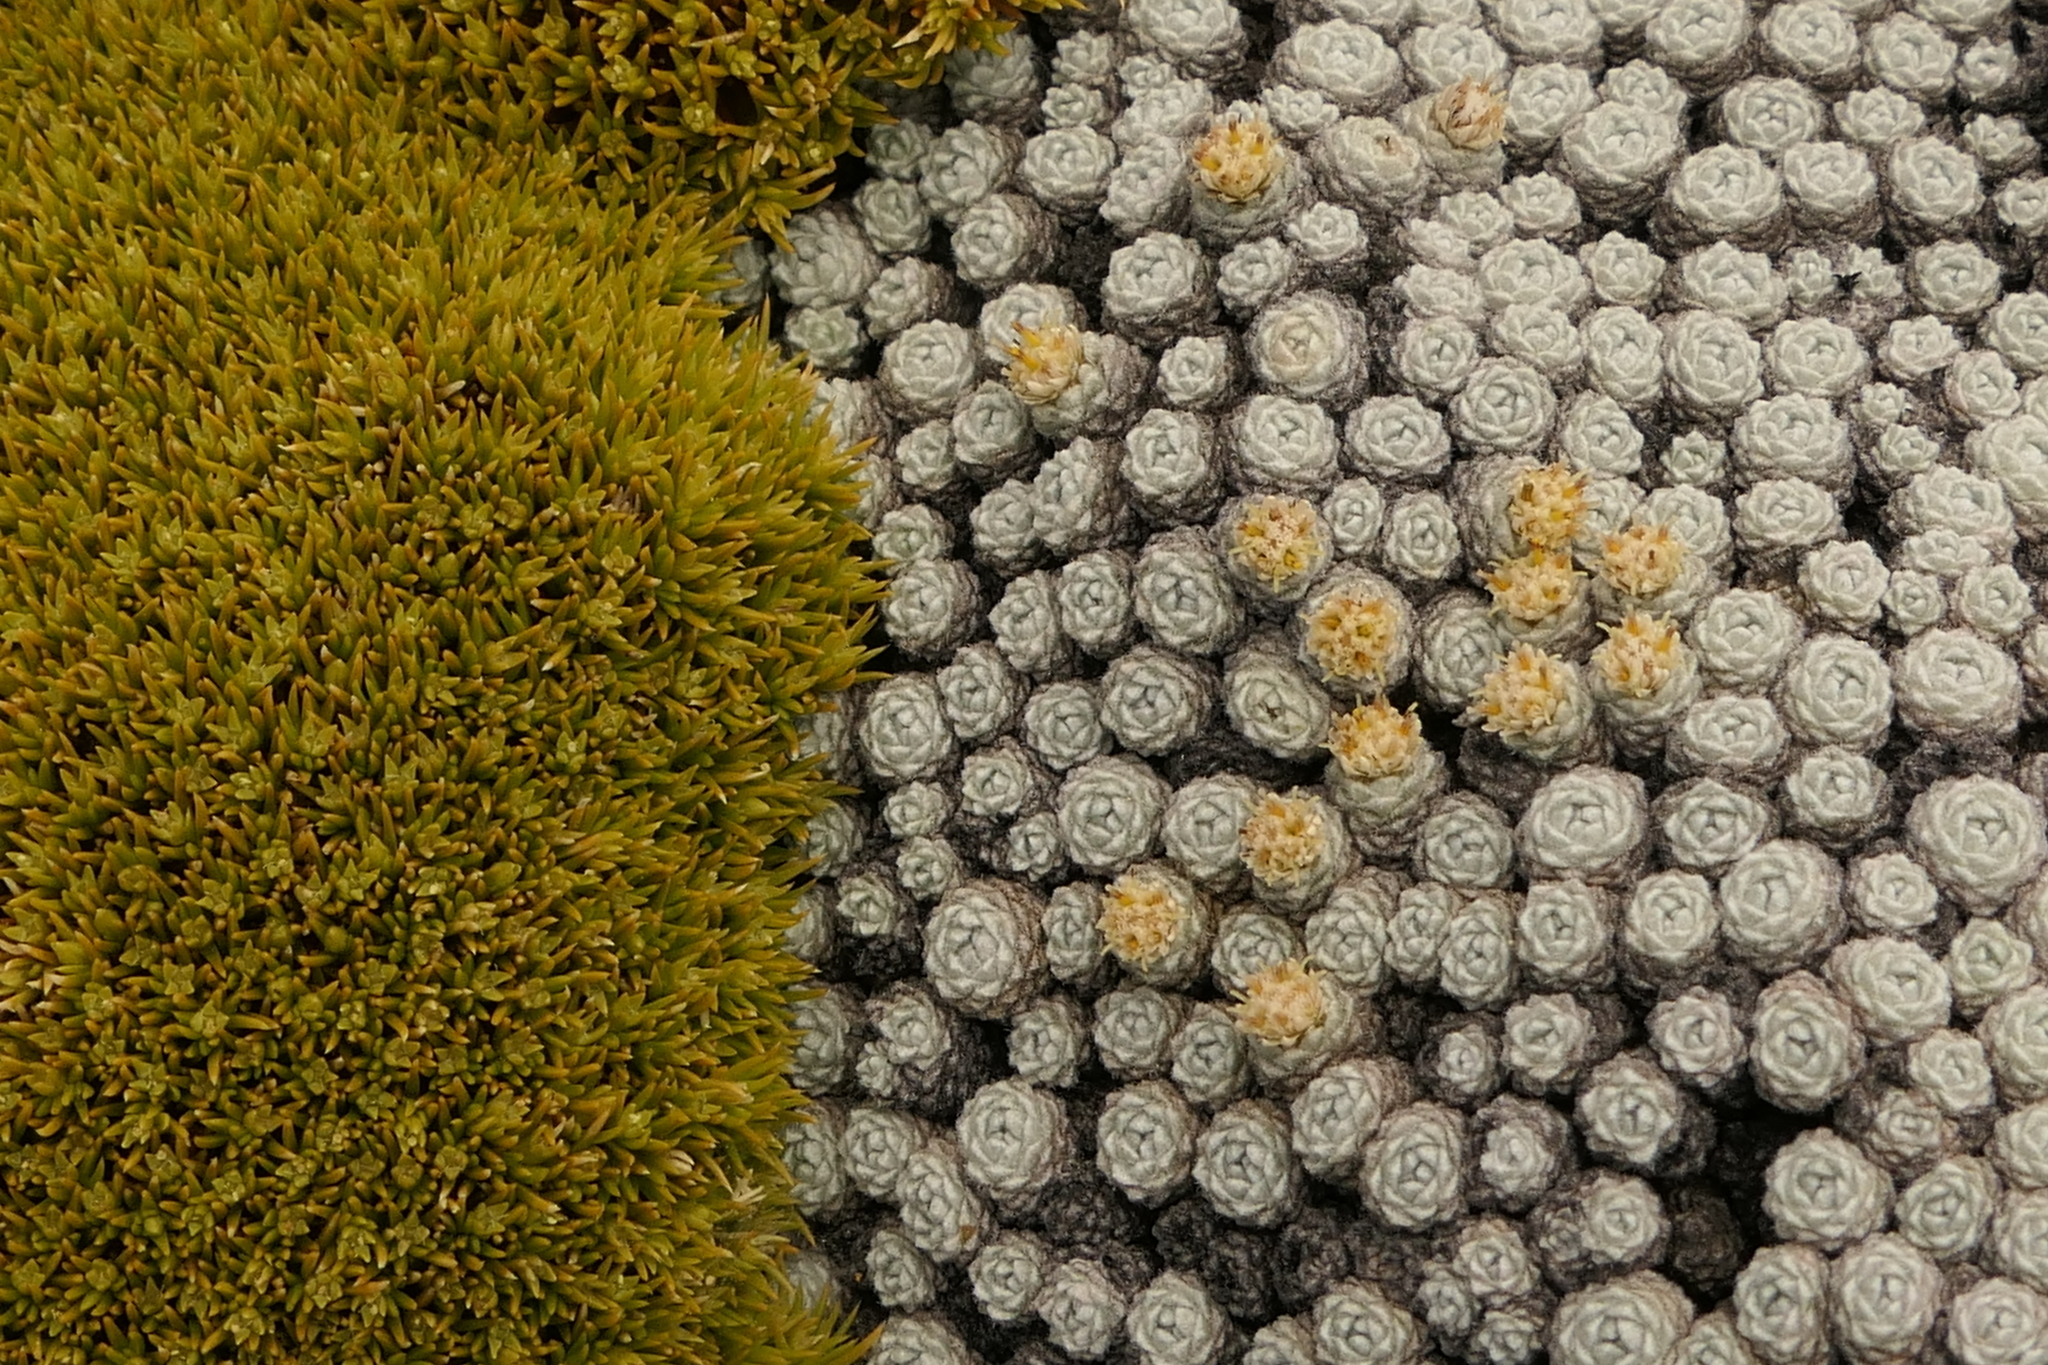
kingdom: Plantae
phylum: Tracheophyta
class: Magnoliopsida
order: Asterales
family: Asteraceae
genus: Raoulia
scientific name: Raoulia bryoides
